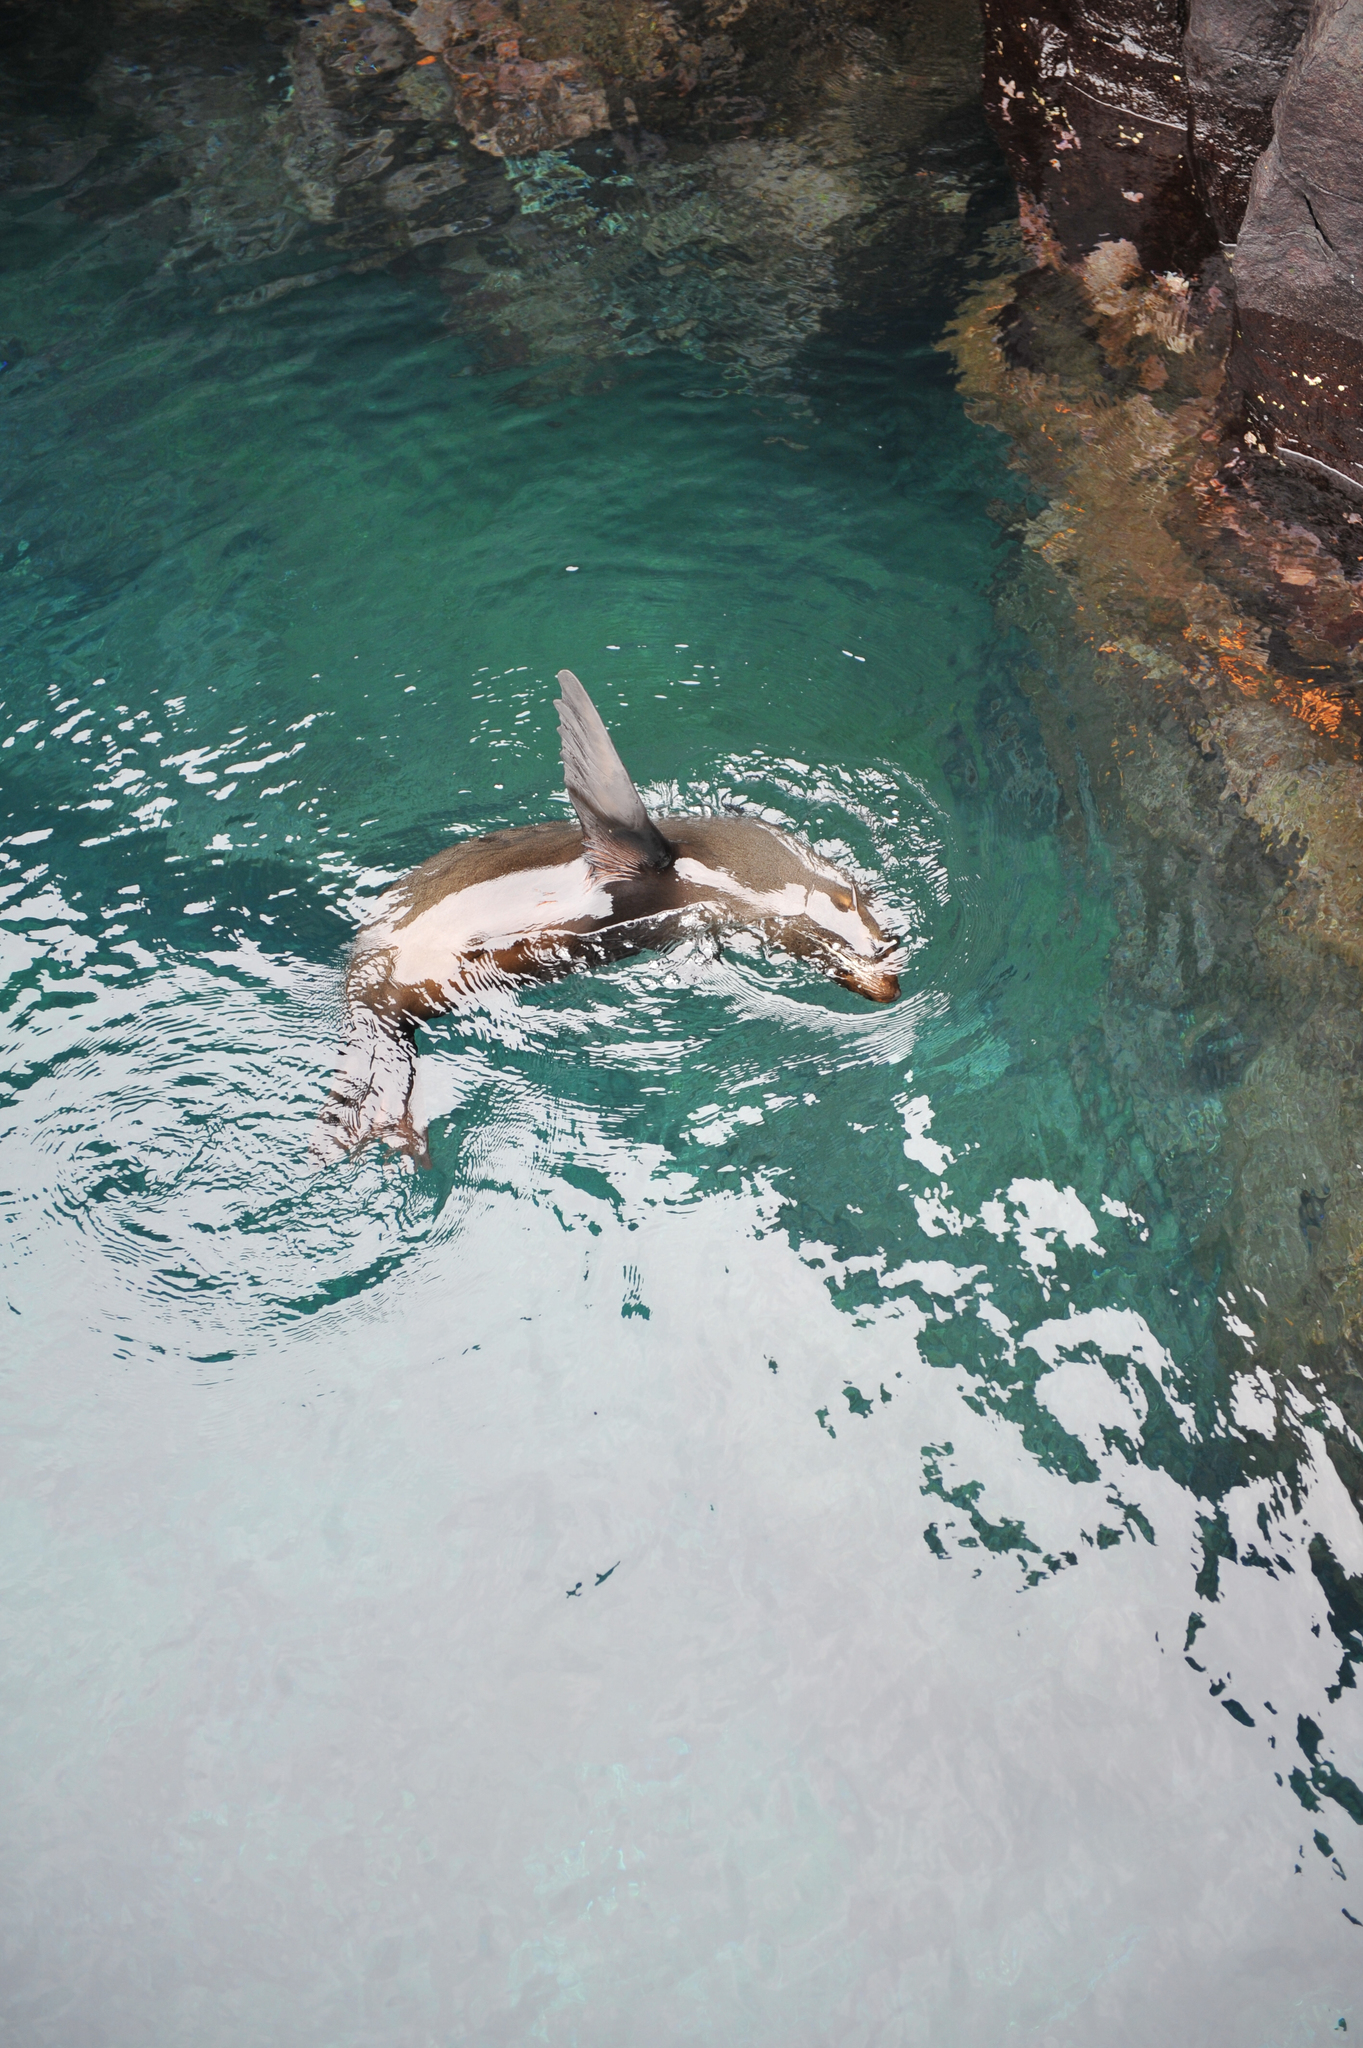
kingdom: Animalia
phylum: Chordata
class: Mammalia
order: Carnivora
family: Otariidae
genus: Arctocephalus
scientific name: Arctocephalus galapagoensis
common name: Galapagos fur seal
